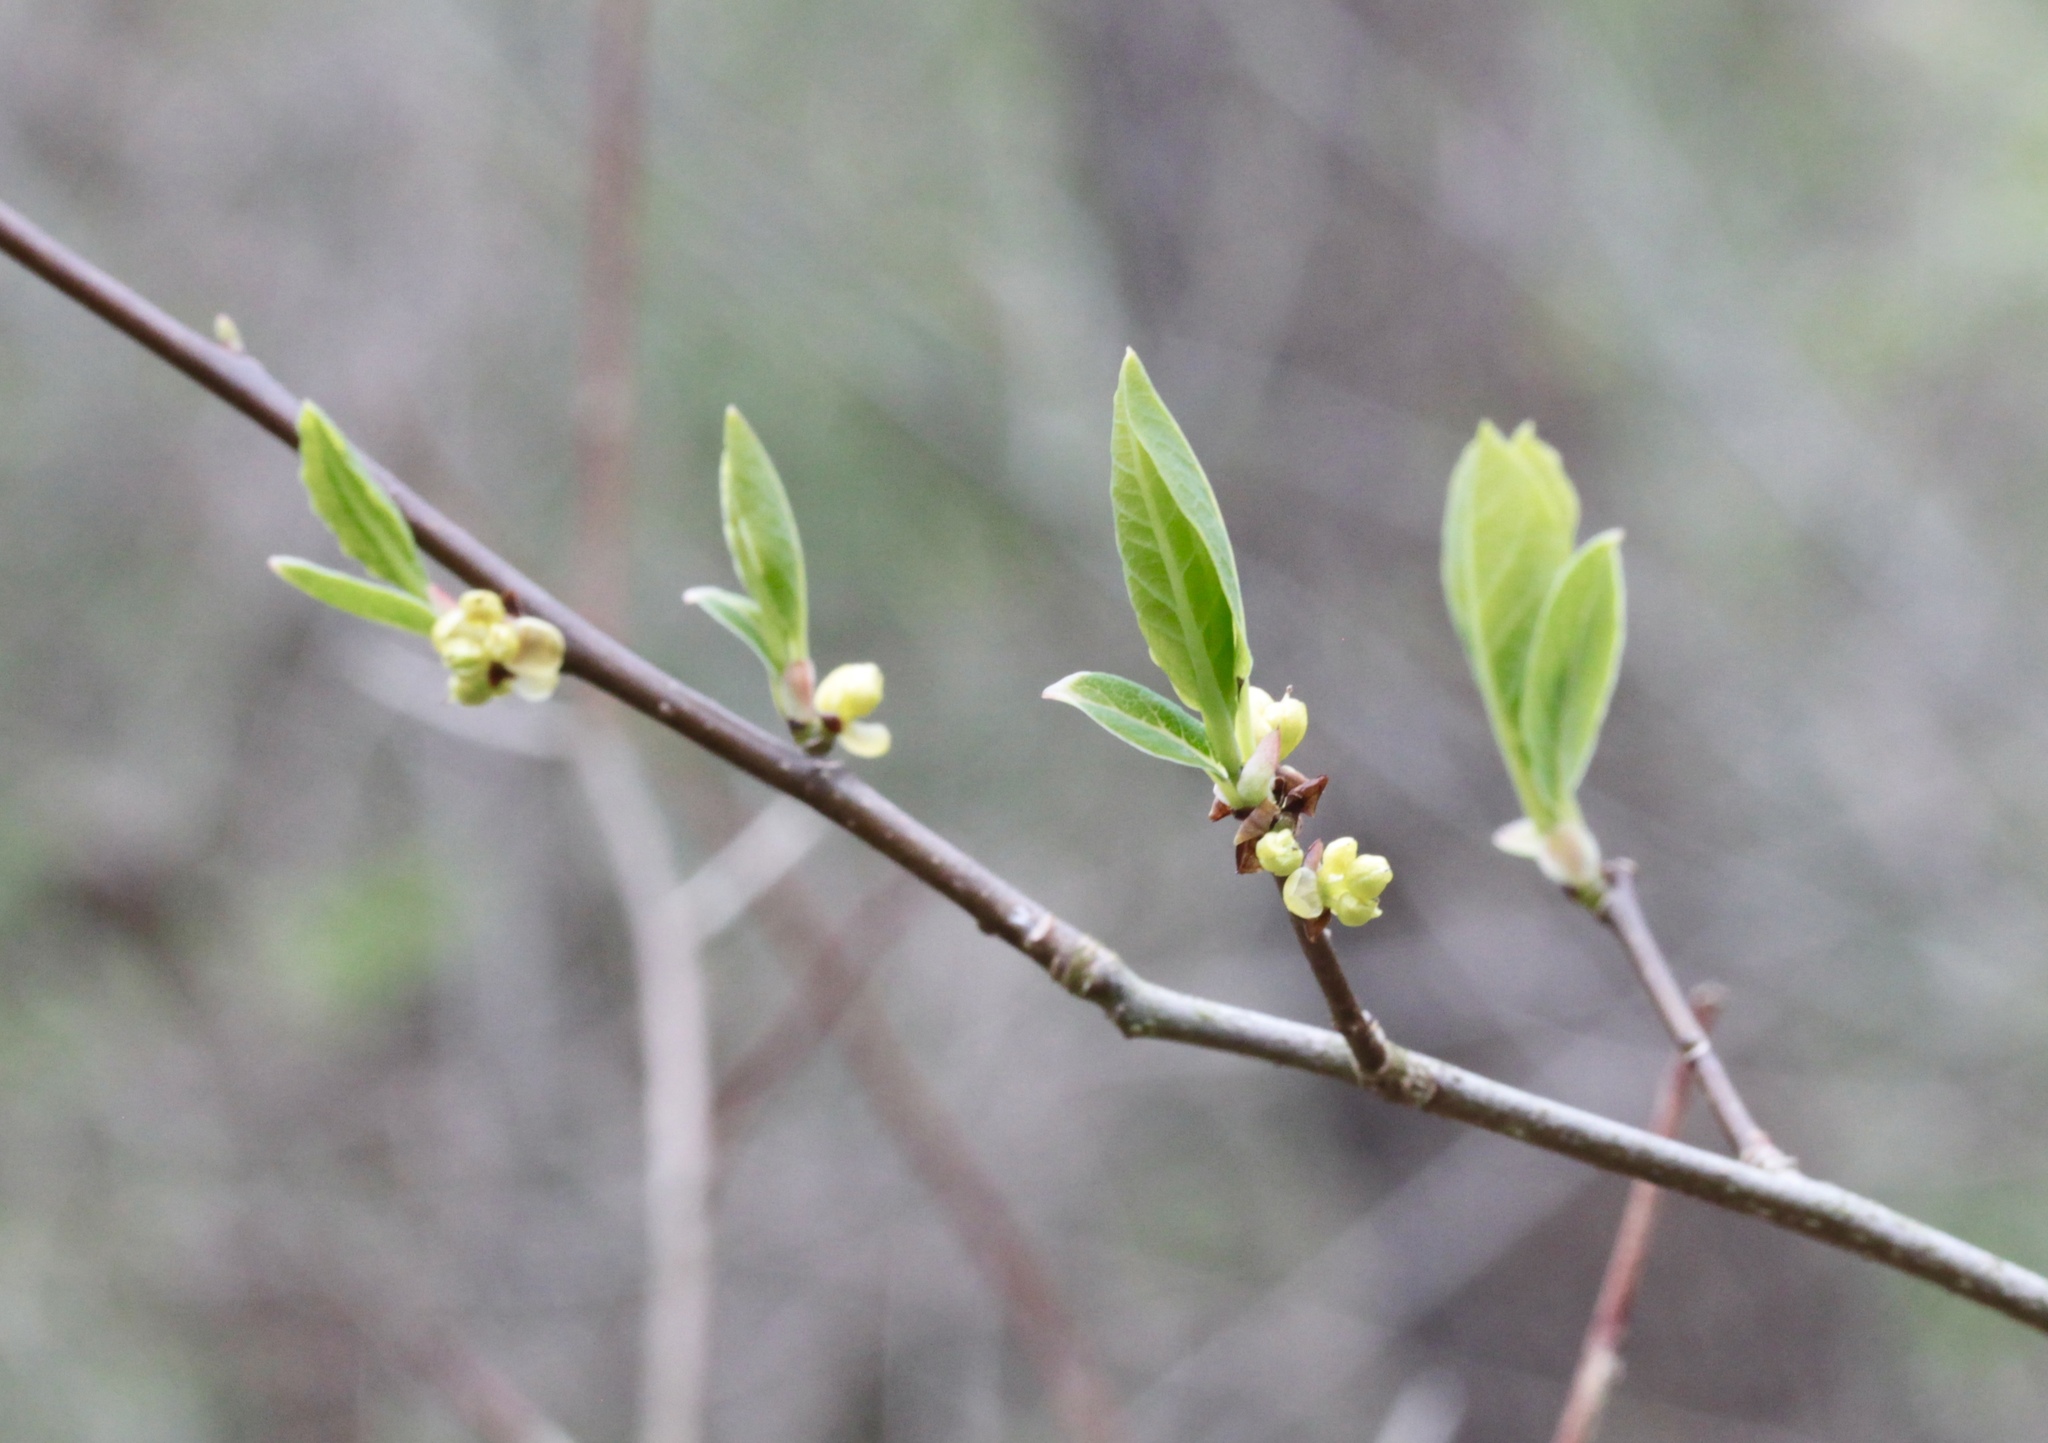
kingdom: Plantae
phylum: Tracheophyta
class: Magnoliopsida
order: Laurales
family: Lauraceae
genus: Lindera
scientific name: Lindera benzoin
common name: Spicebush
